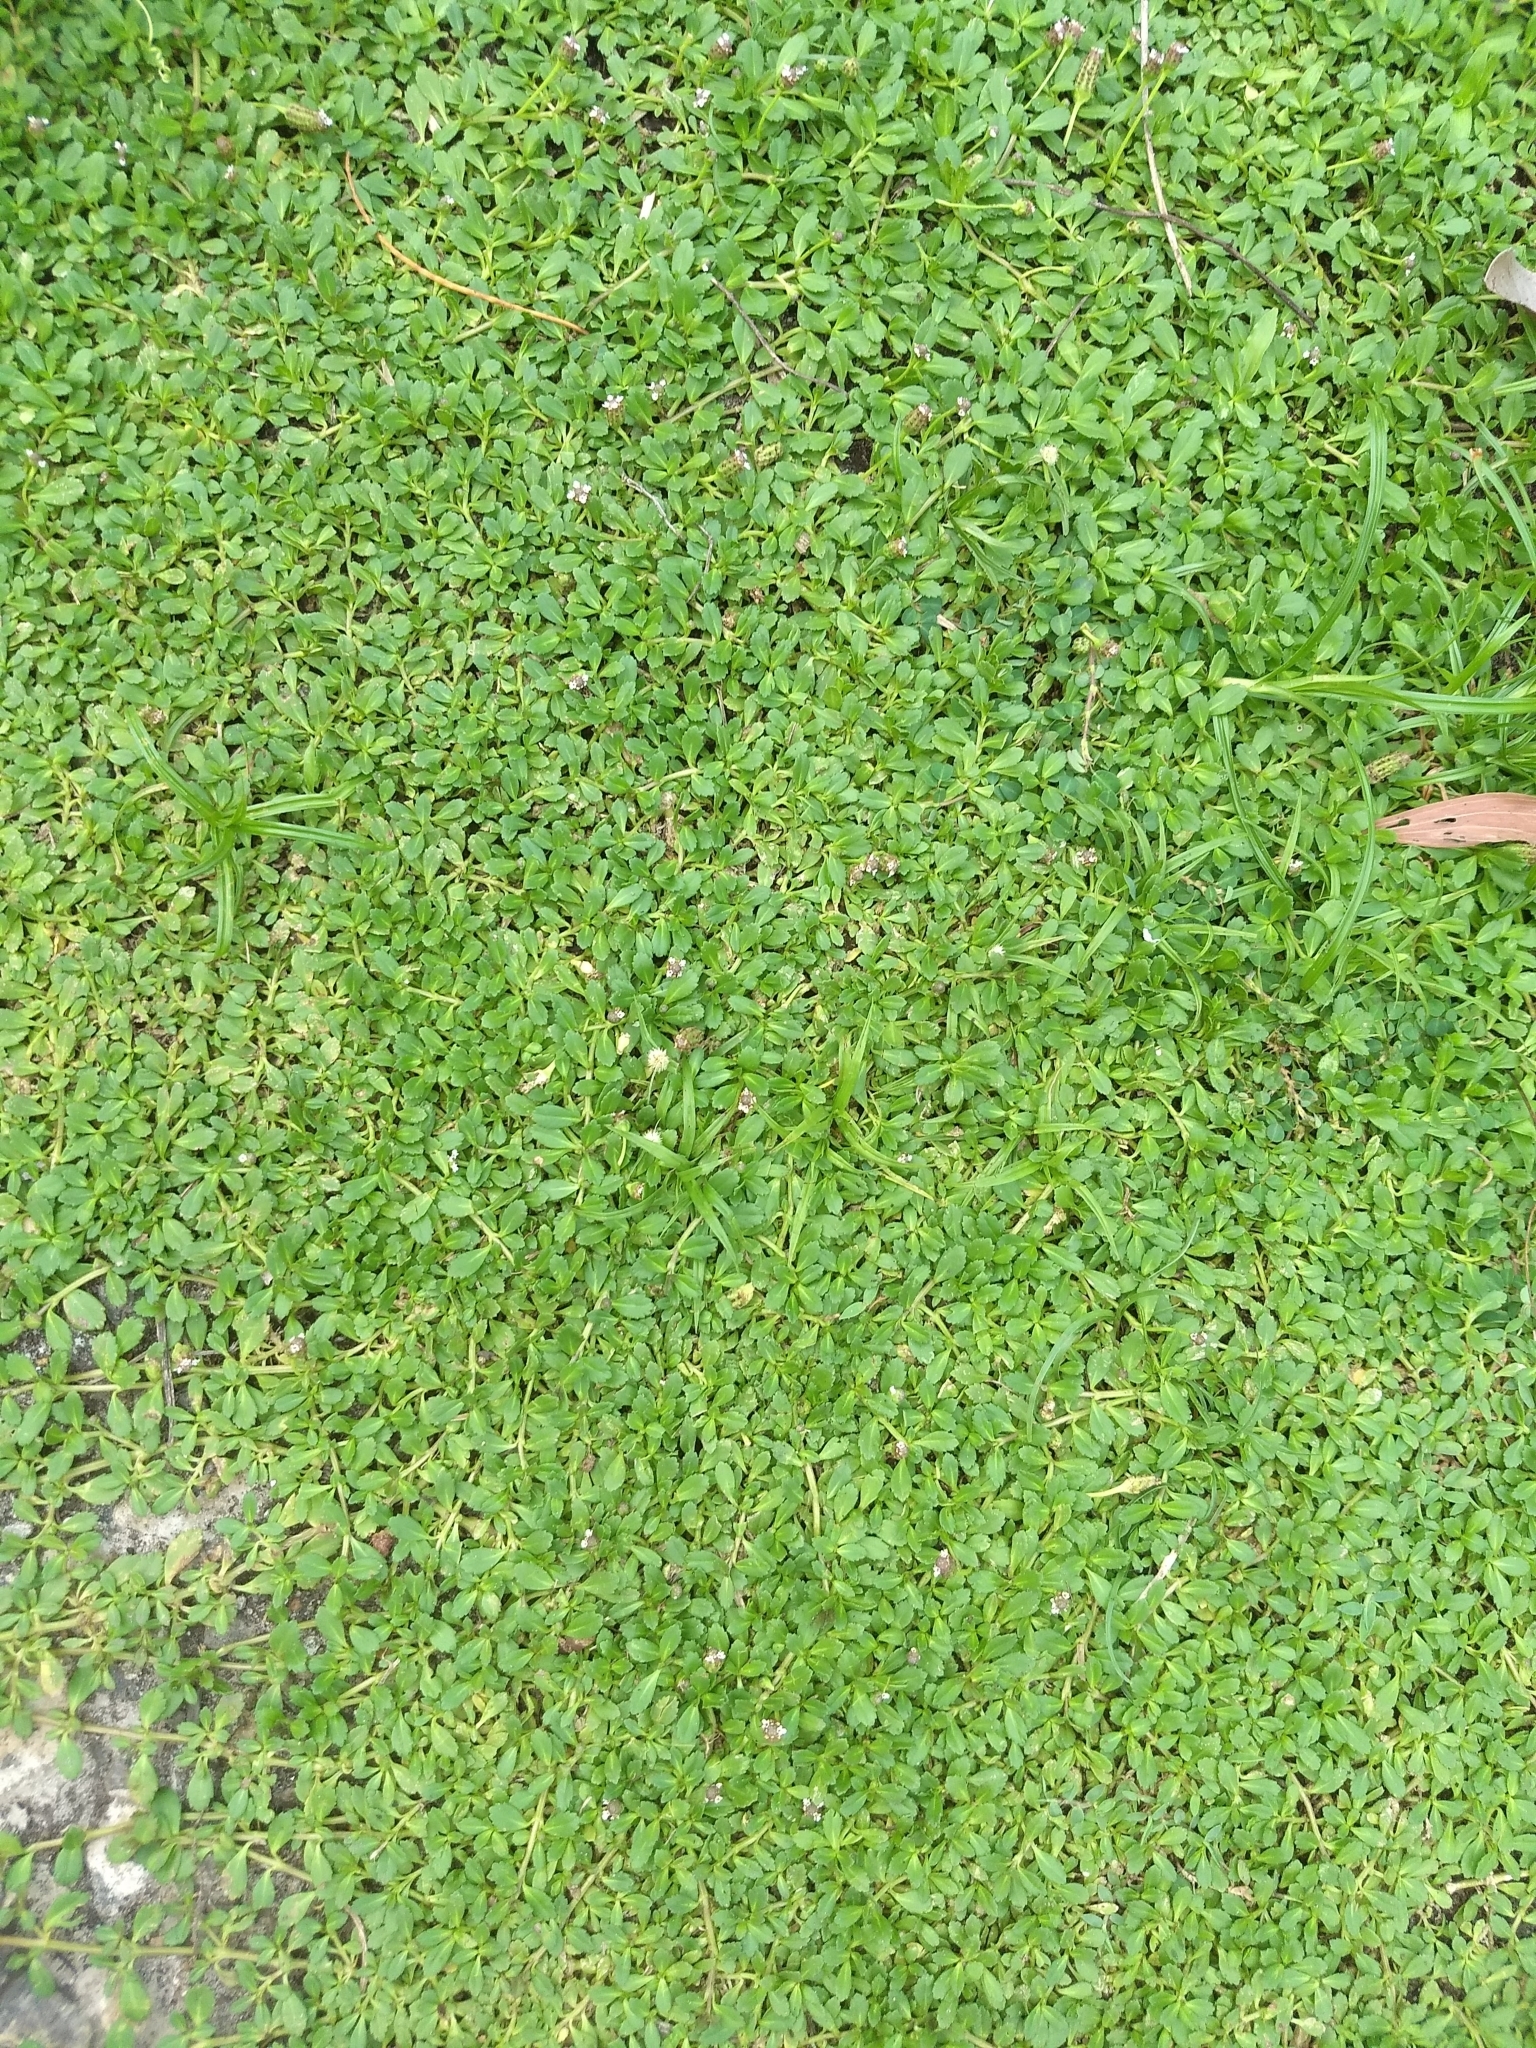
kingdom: Plantae
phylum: Tracheophyta
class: Magnoliopsida
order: Lamiales
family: Verbenaceae
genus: Phyla
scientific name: Phyla nodiflora
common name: Frogfruit
